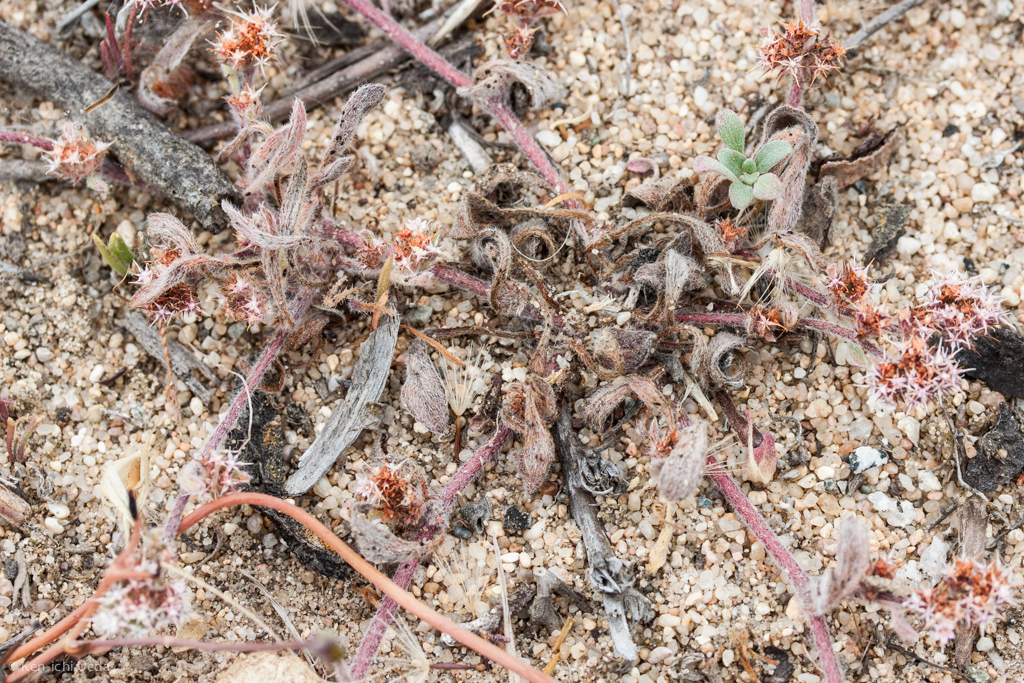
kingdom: Plantae
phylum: Tracheophyta
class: Magnoliopsida
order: Caryophyllales
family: Polygonaceae
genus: Chorizanthe
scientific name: Chorizanthe pungens
